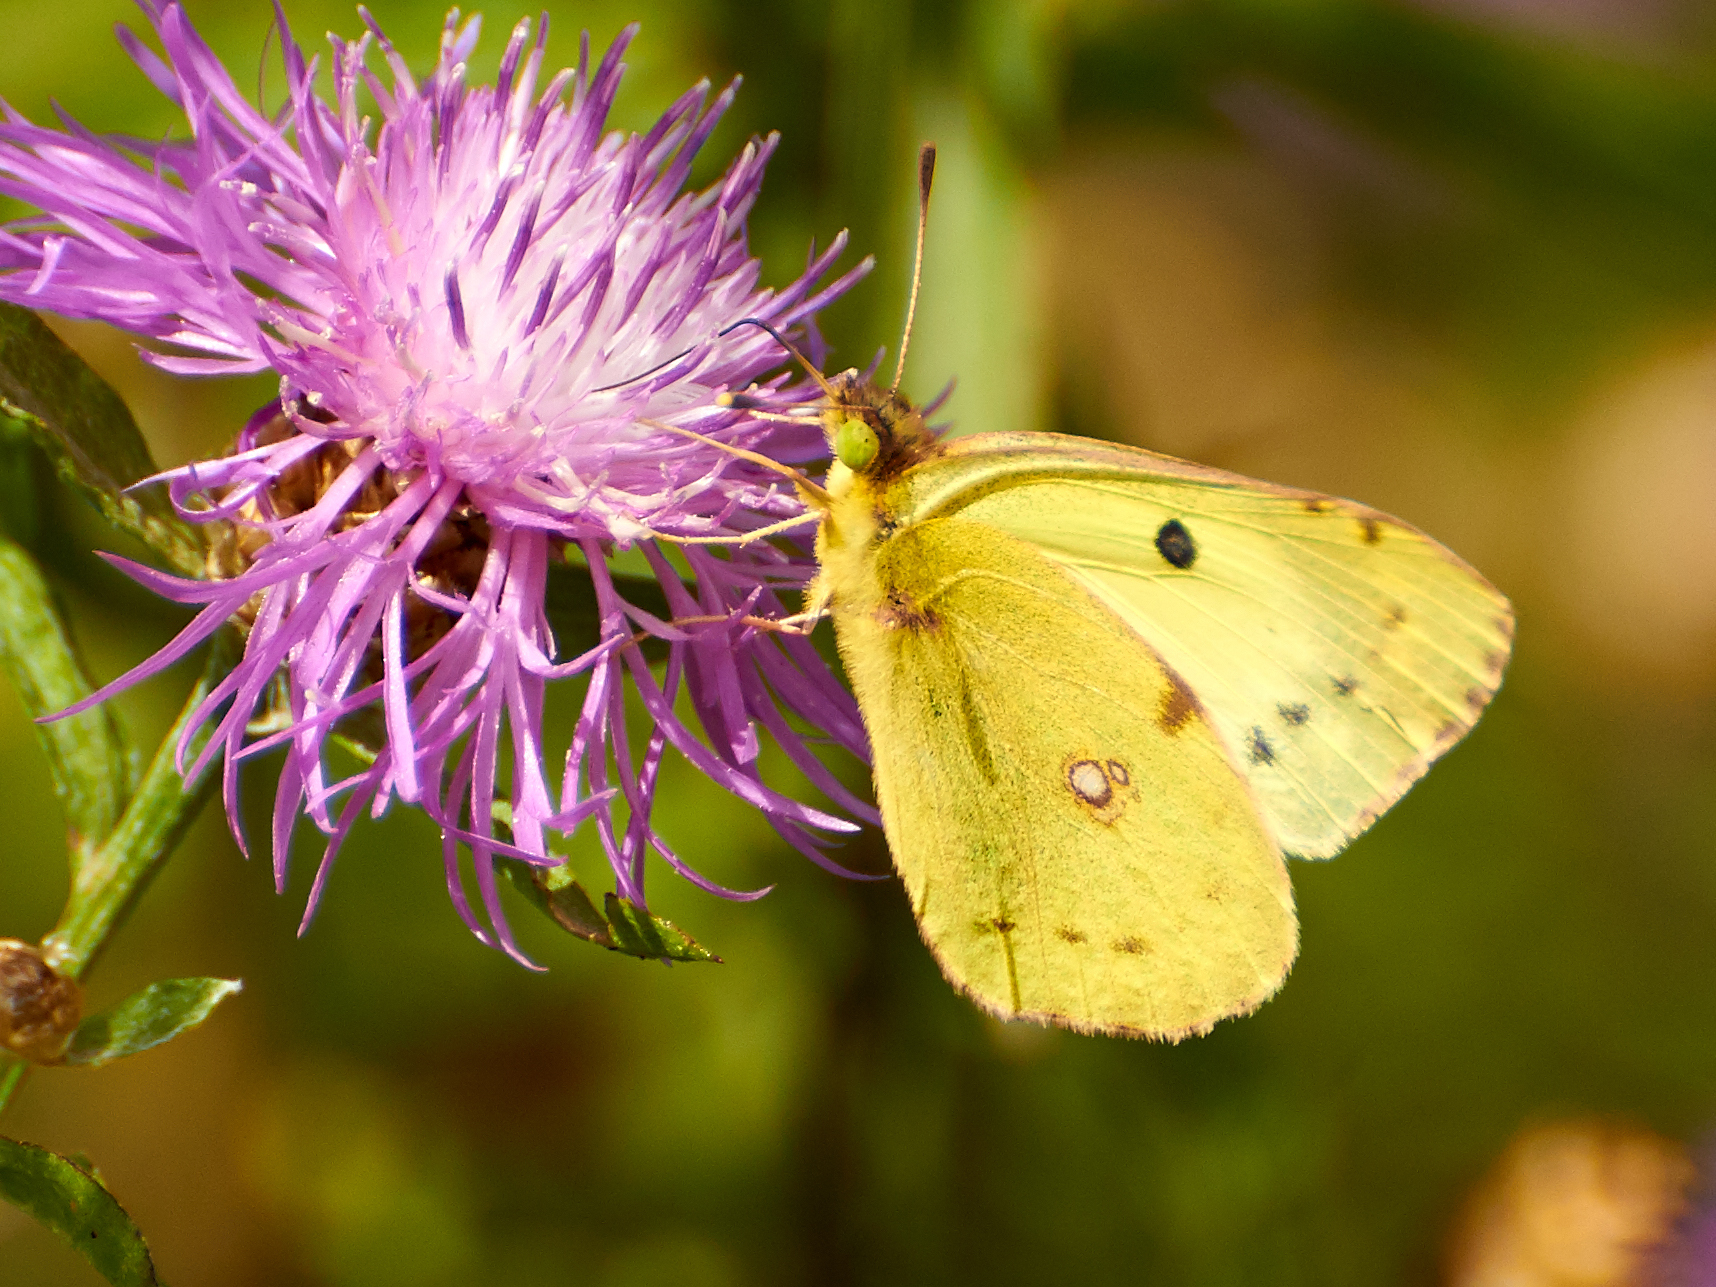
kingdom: Animalia
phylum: Arthropoda
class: Insecta
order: Lepidoptera
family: Pieridae
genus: Colias
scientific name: Colias hyale
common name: Pale clouded yellow
